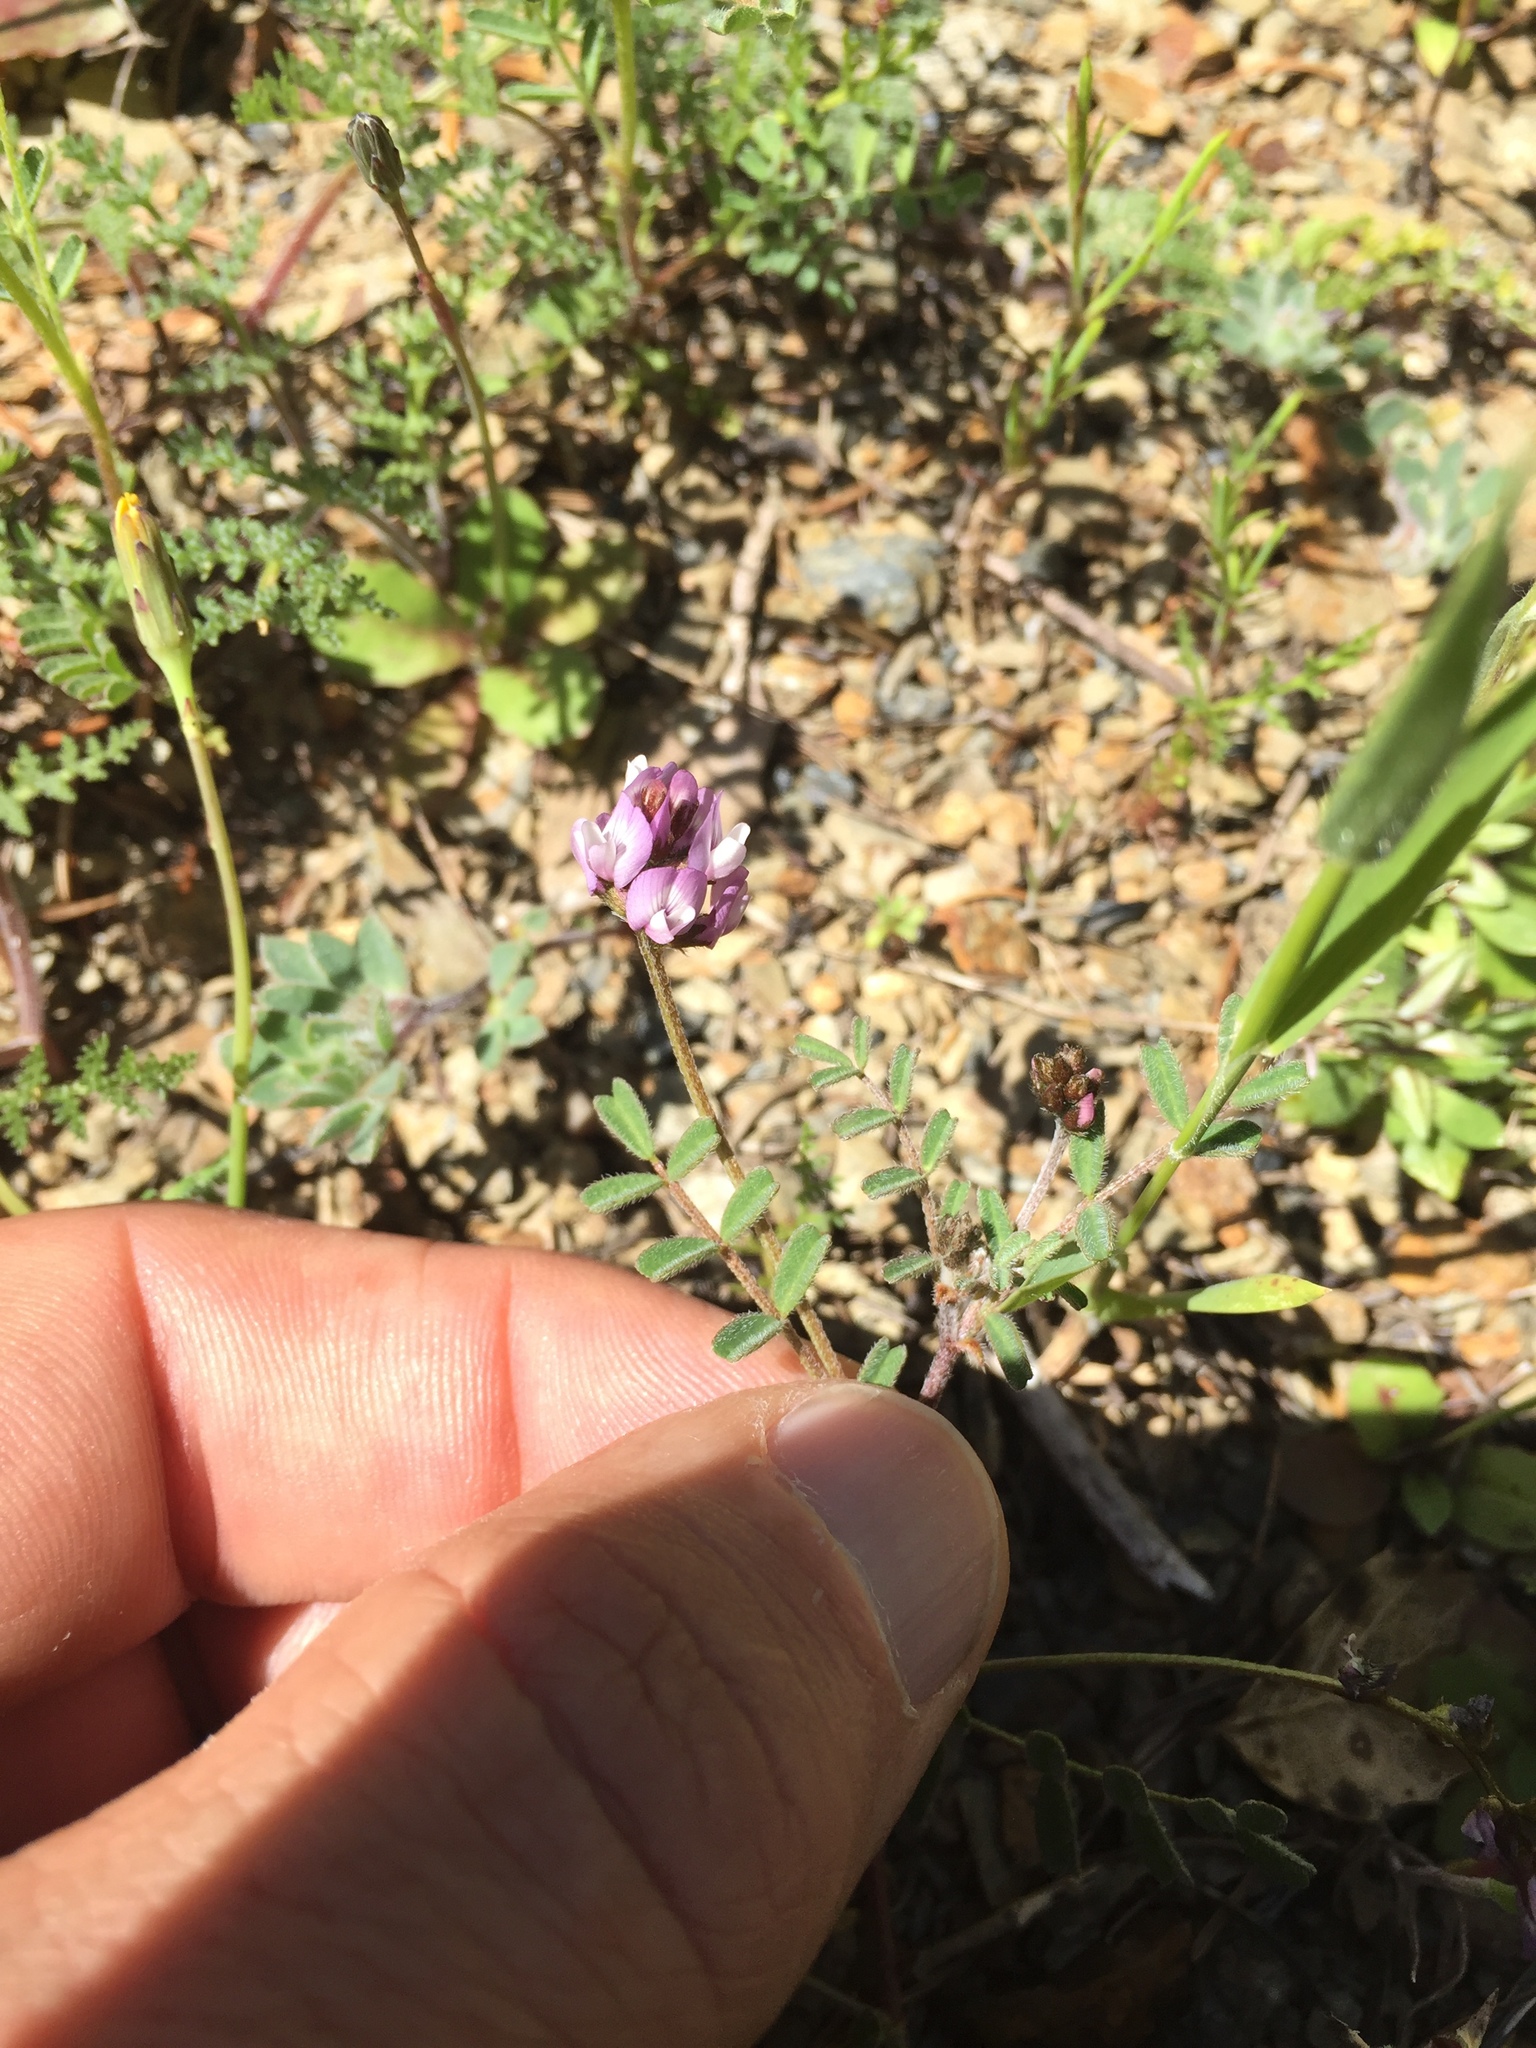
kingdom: Plantae
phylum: Tracheophyta
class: Magnoliopsida
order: Fabales
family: Fabaceae
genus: Astragalus
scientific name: Astragalus gambelianus
